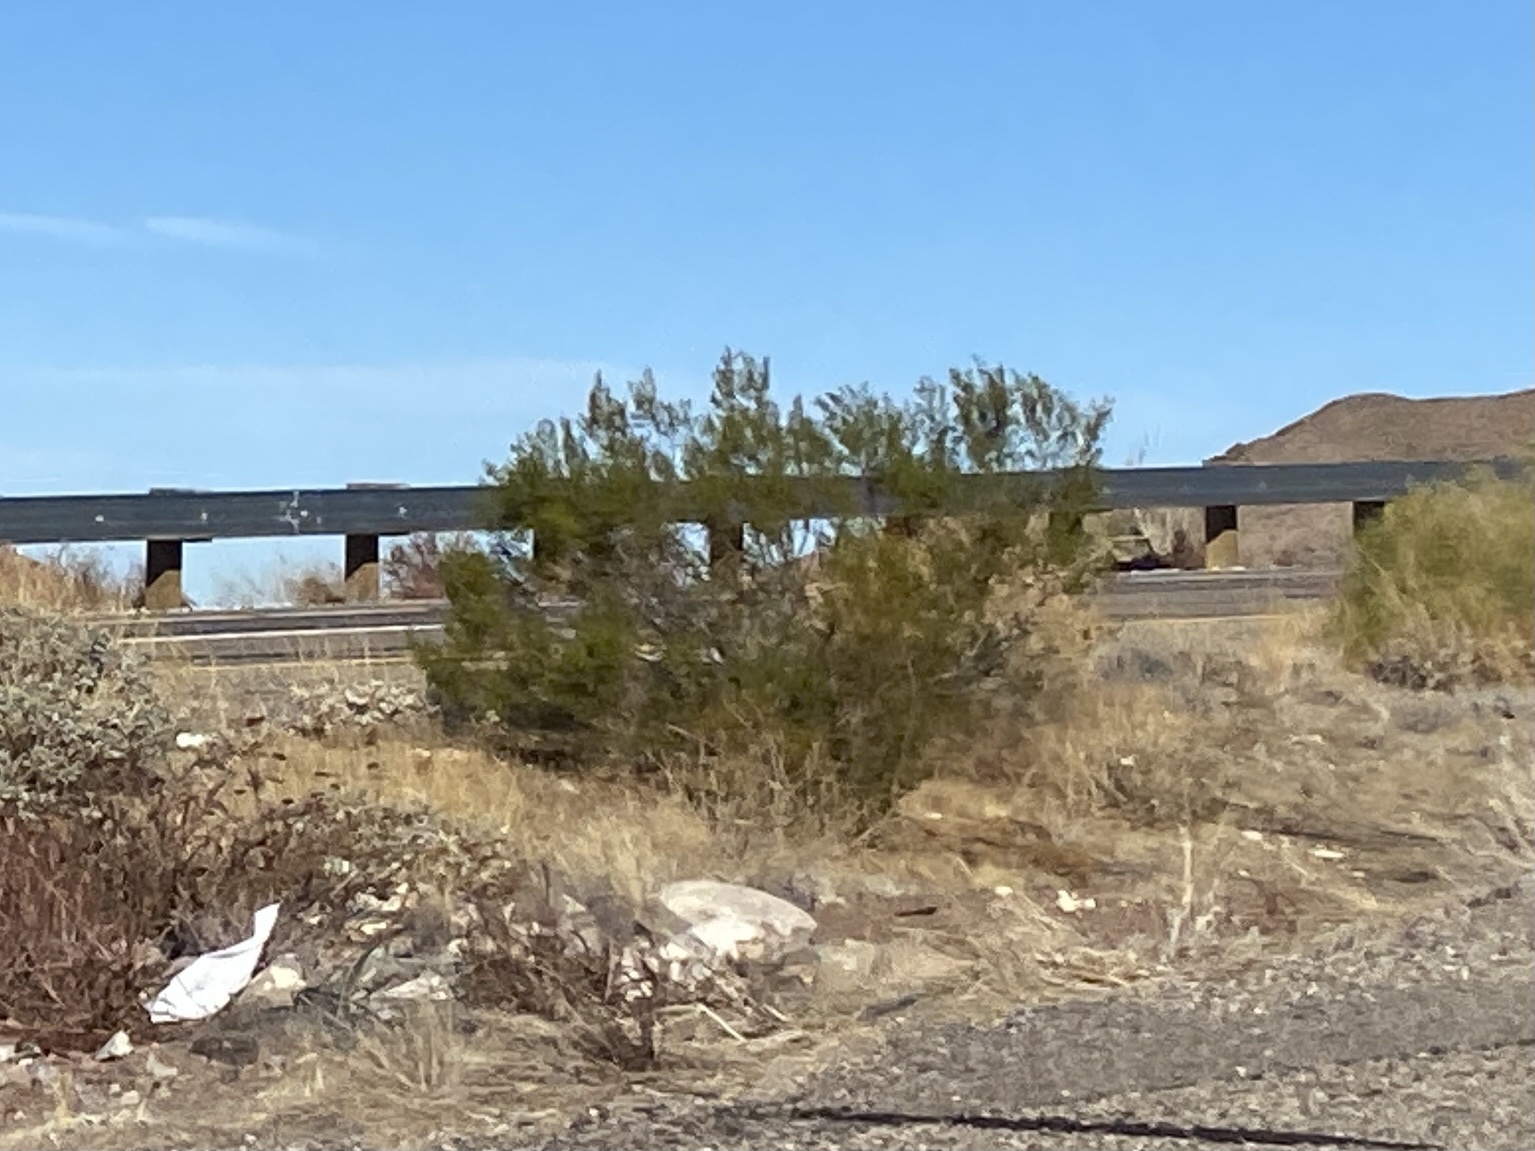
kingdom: Plantae
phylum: Tracheophyta
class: Magnoliopsida
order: Zygophyllales
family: Zygophyllaceae
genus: Larrea
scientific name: Larrea tridentata
